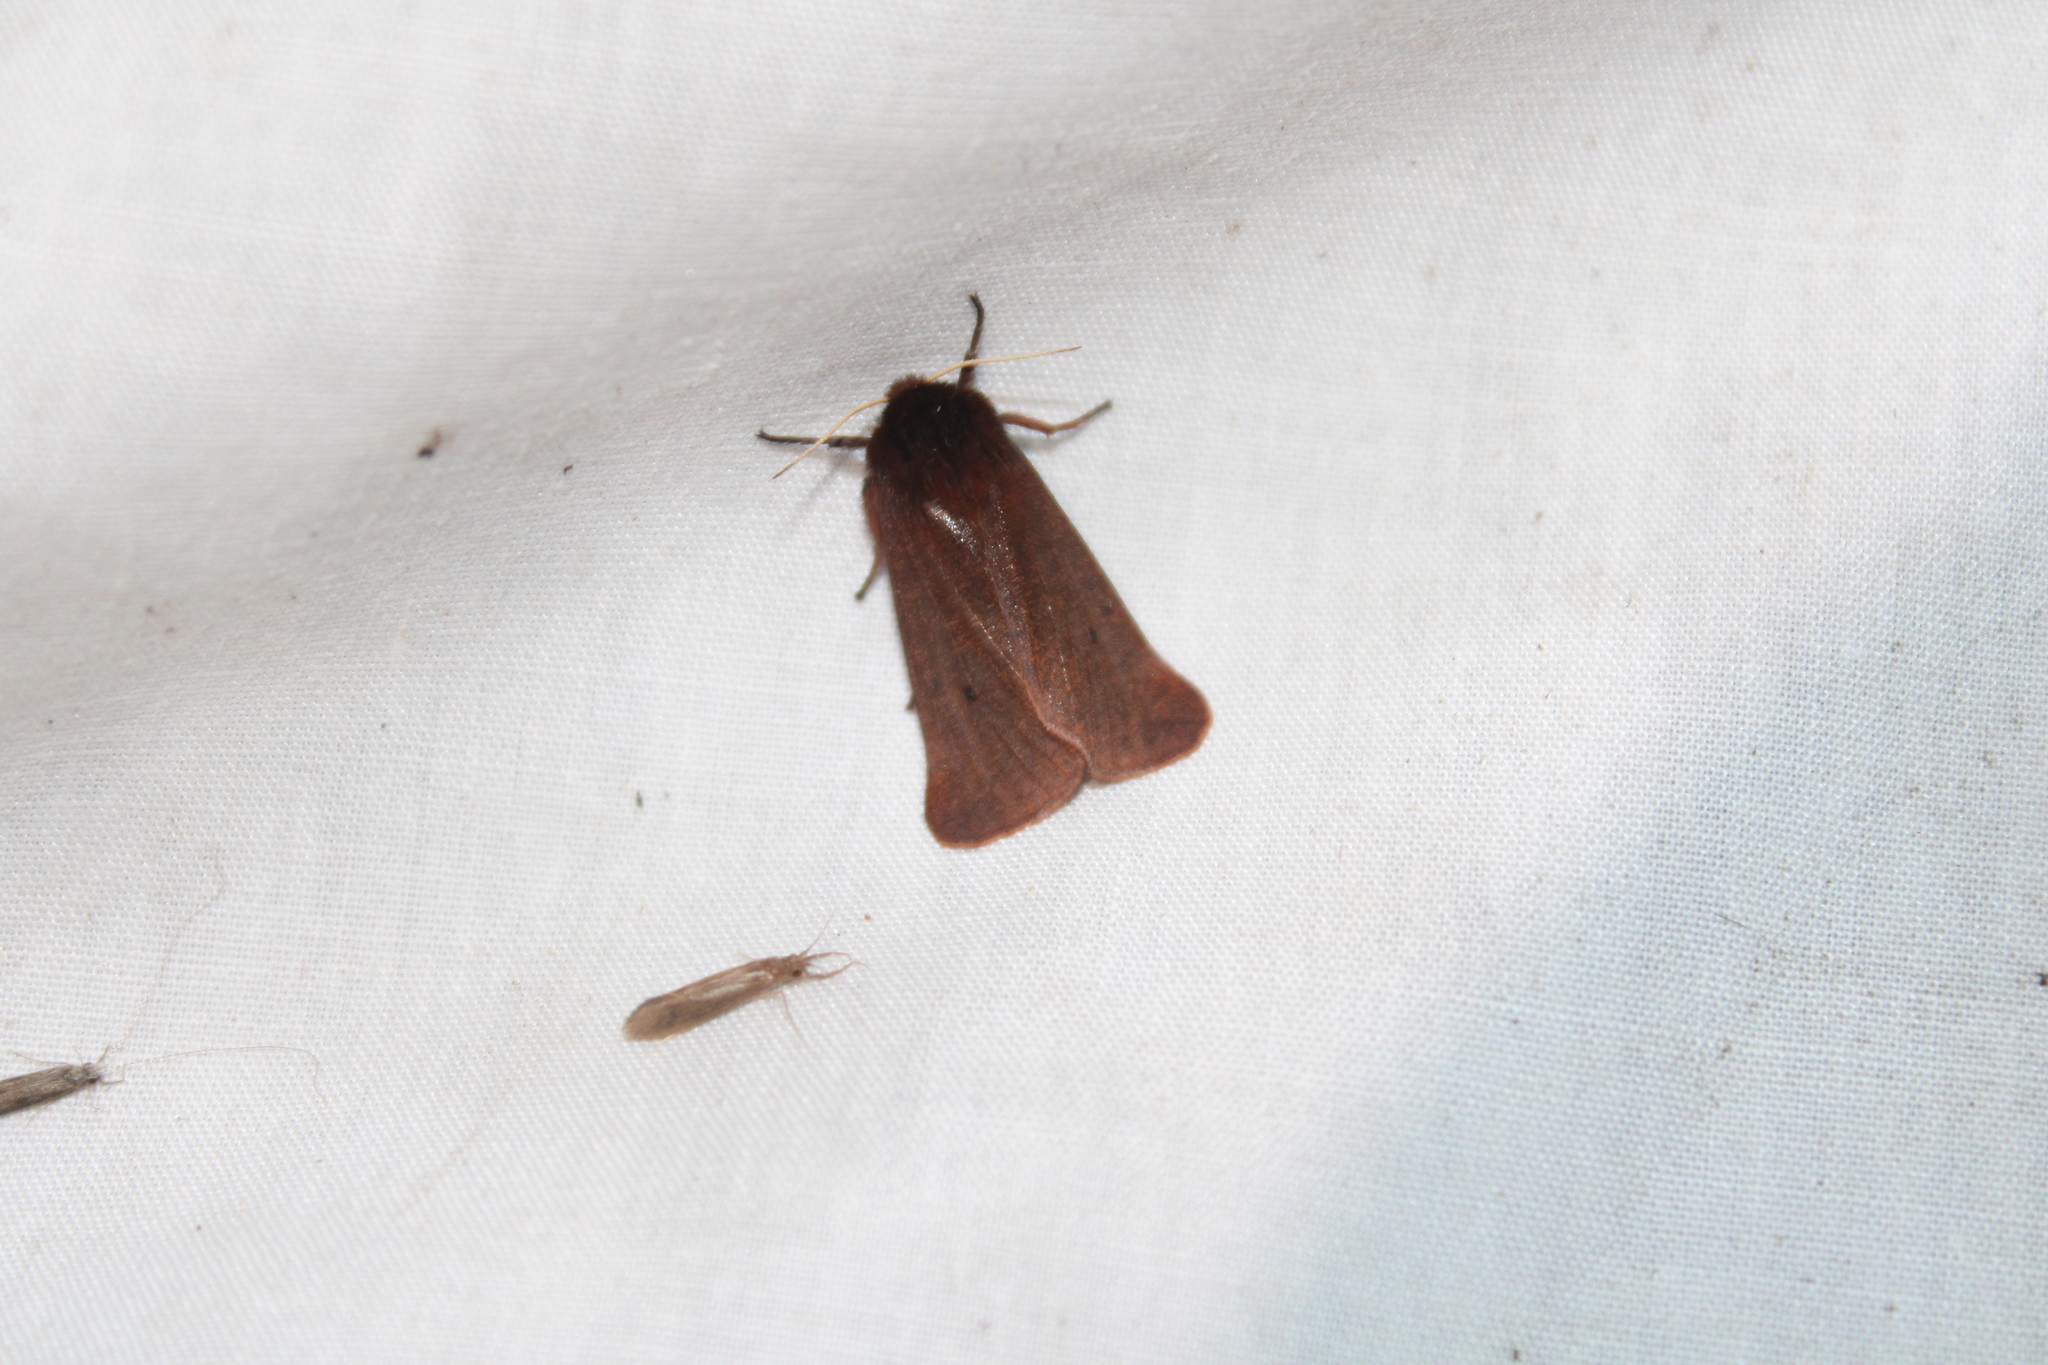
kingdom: Animalia
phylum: Arthropoda
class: Insecta
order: Lepidoptera
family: Erebidae
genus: Phragmatobia
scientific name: Phragmatobia fuliginosa
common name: Ruby tiger
